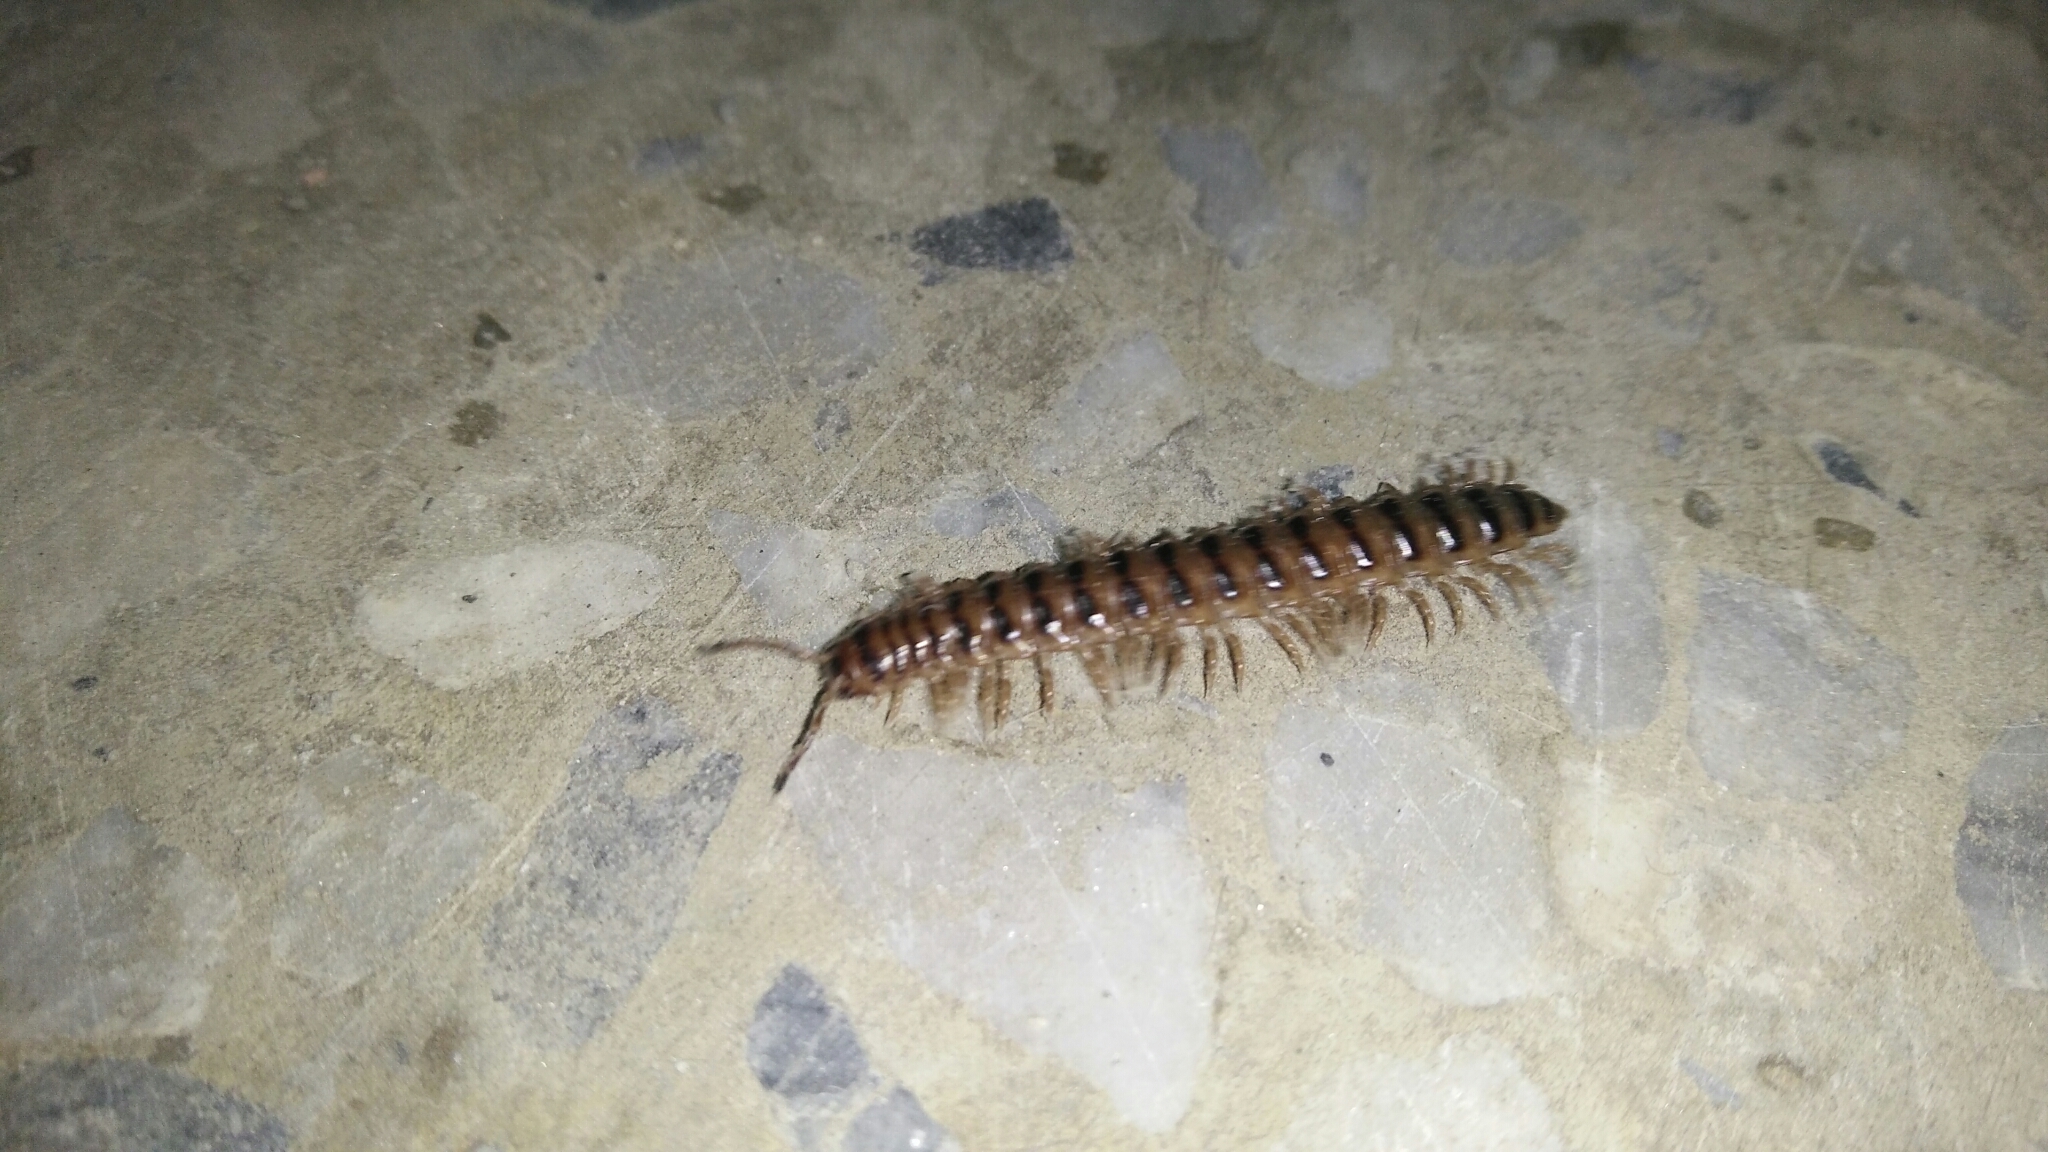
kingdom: Animalia
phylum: Arthropoda
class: Diplopoda
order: Polydesmida
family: Paradoxosomatidae
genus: Chamberlinius
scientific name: Chamberlinius hualienensis
